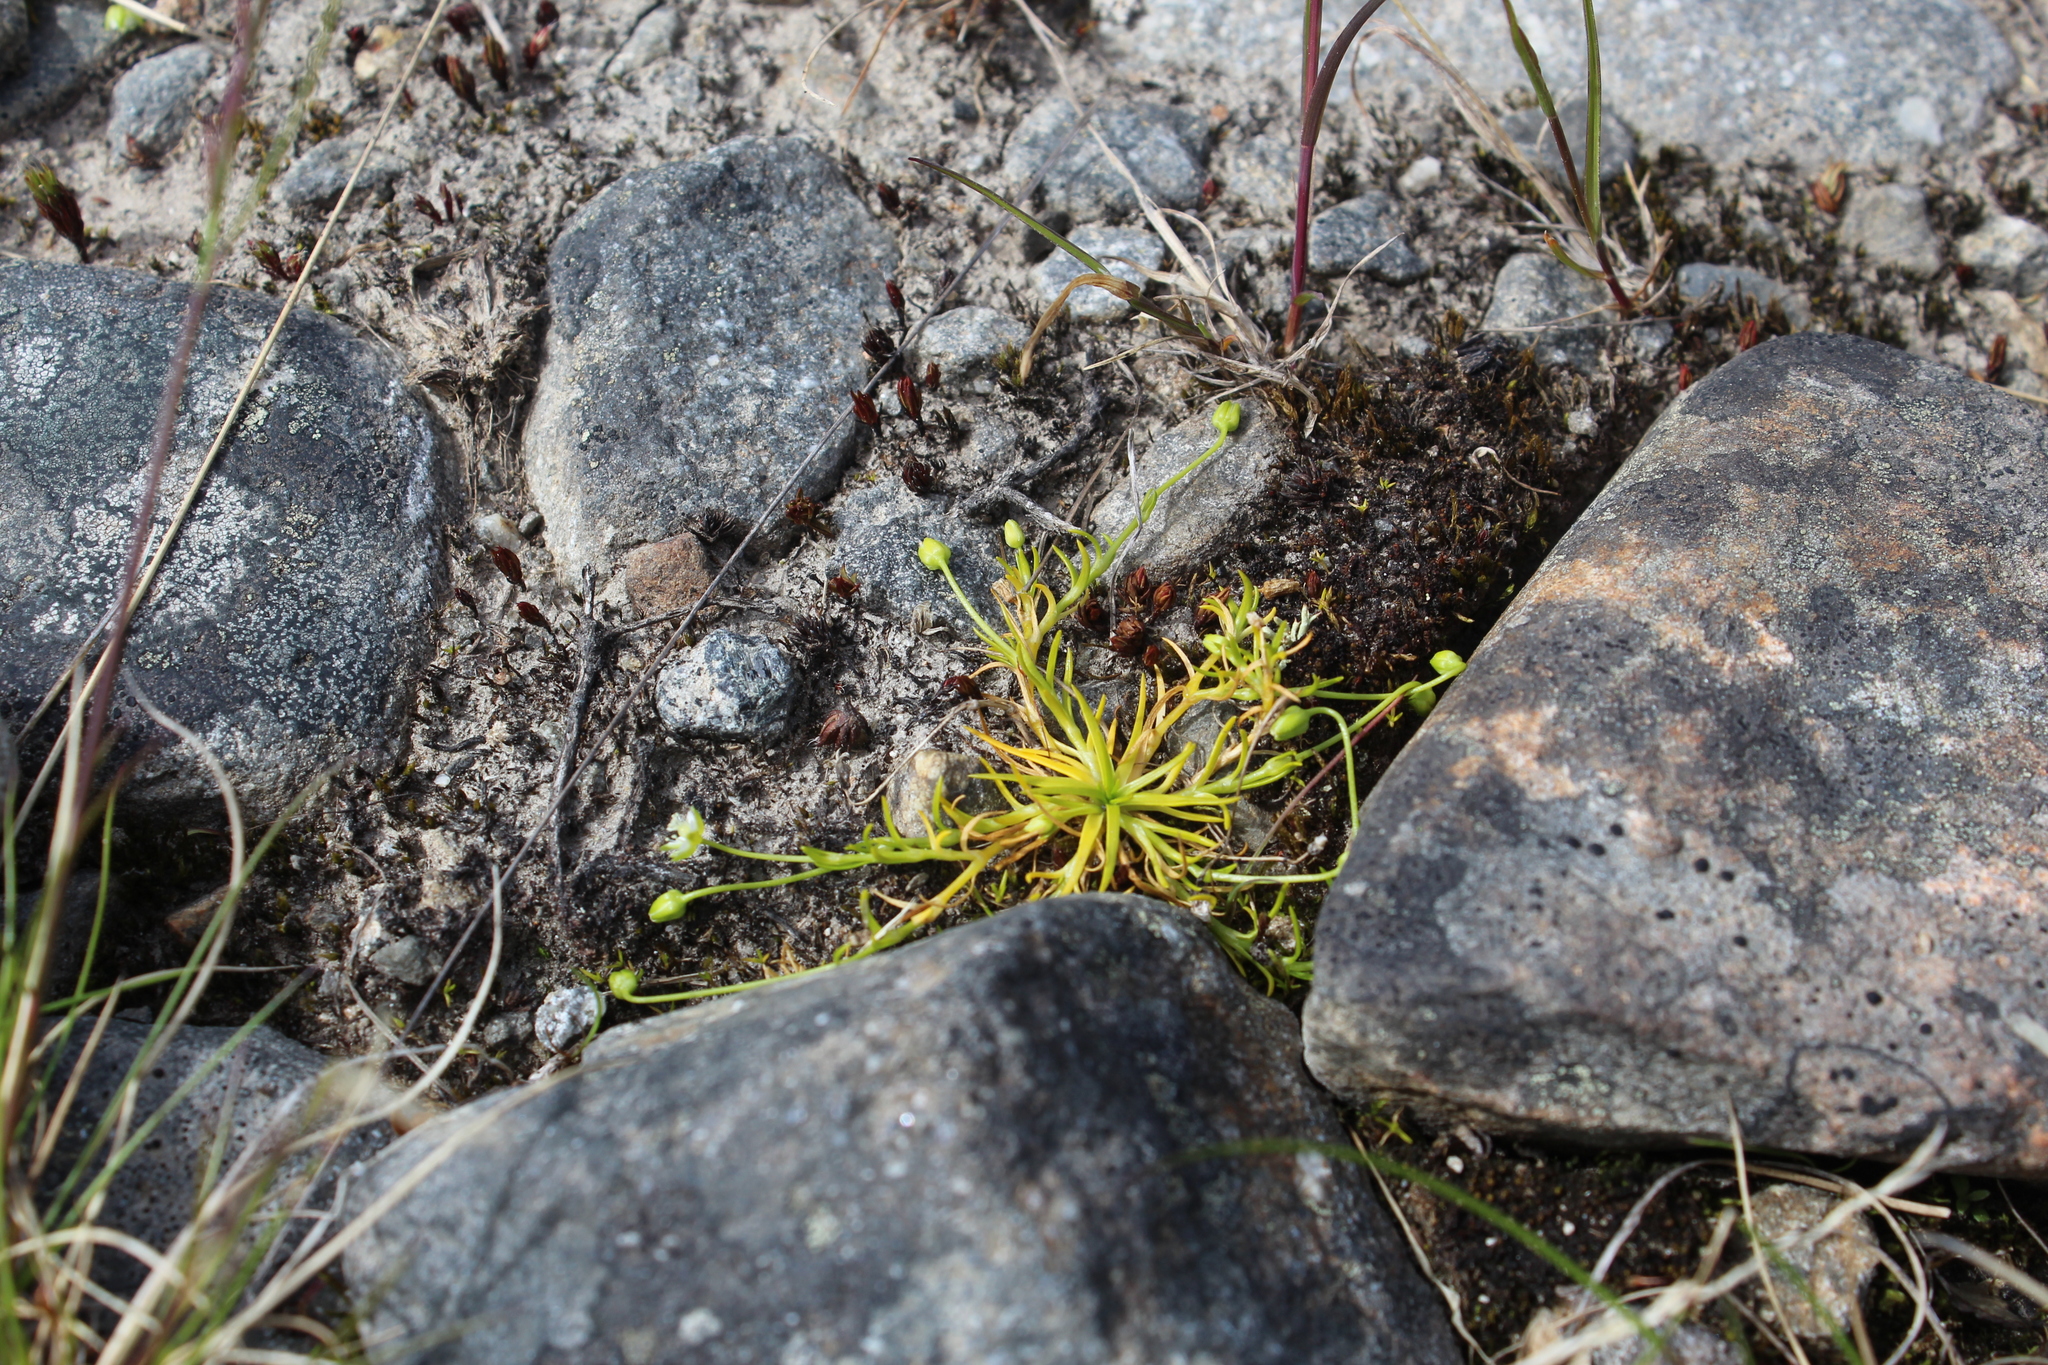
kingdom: Plantae
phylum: Tracheophyta
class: Magnoliopsida
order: Caryophyllales
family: Caryophyllaceae
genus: Sagina
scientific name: Sagina saginoides
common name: Alpine pearlwort
